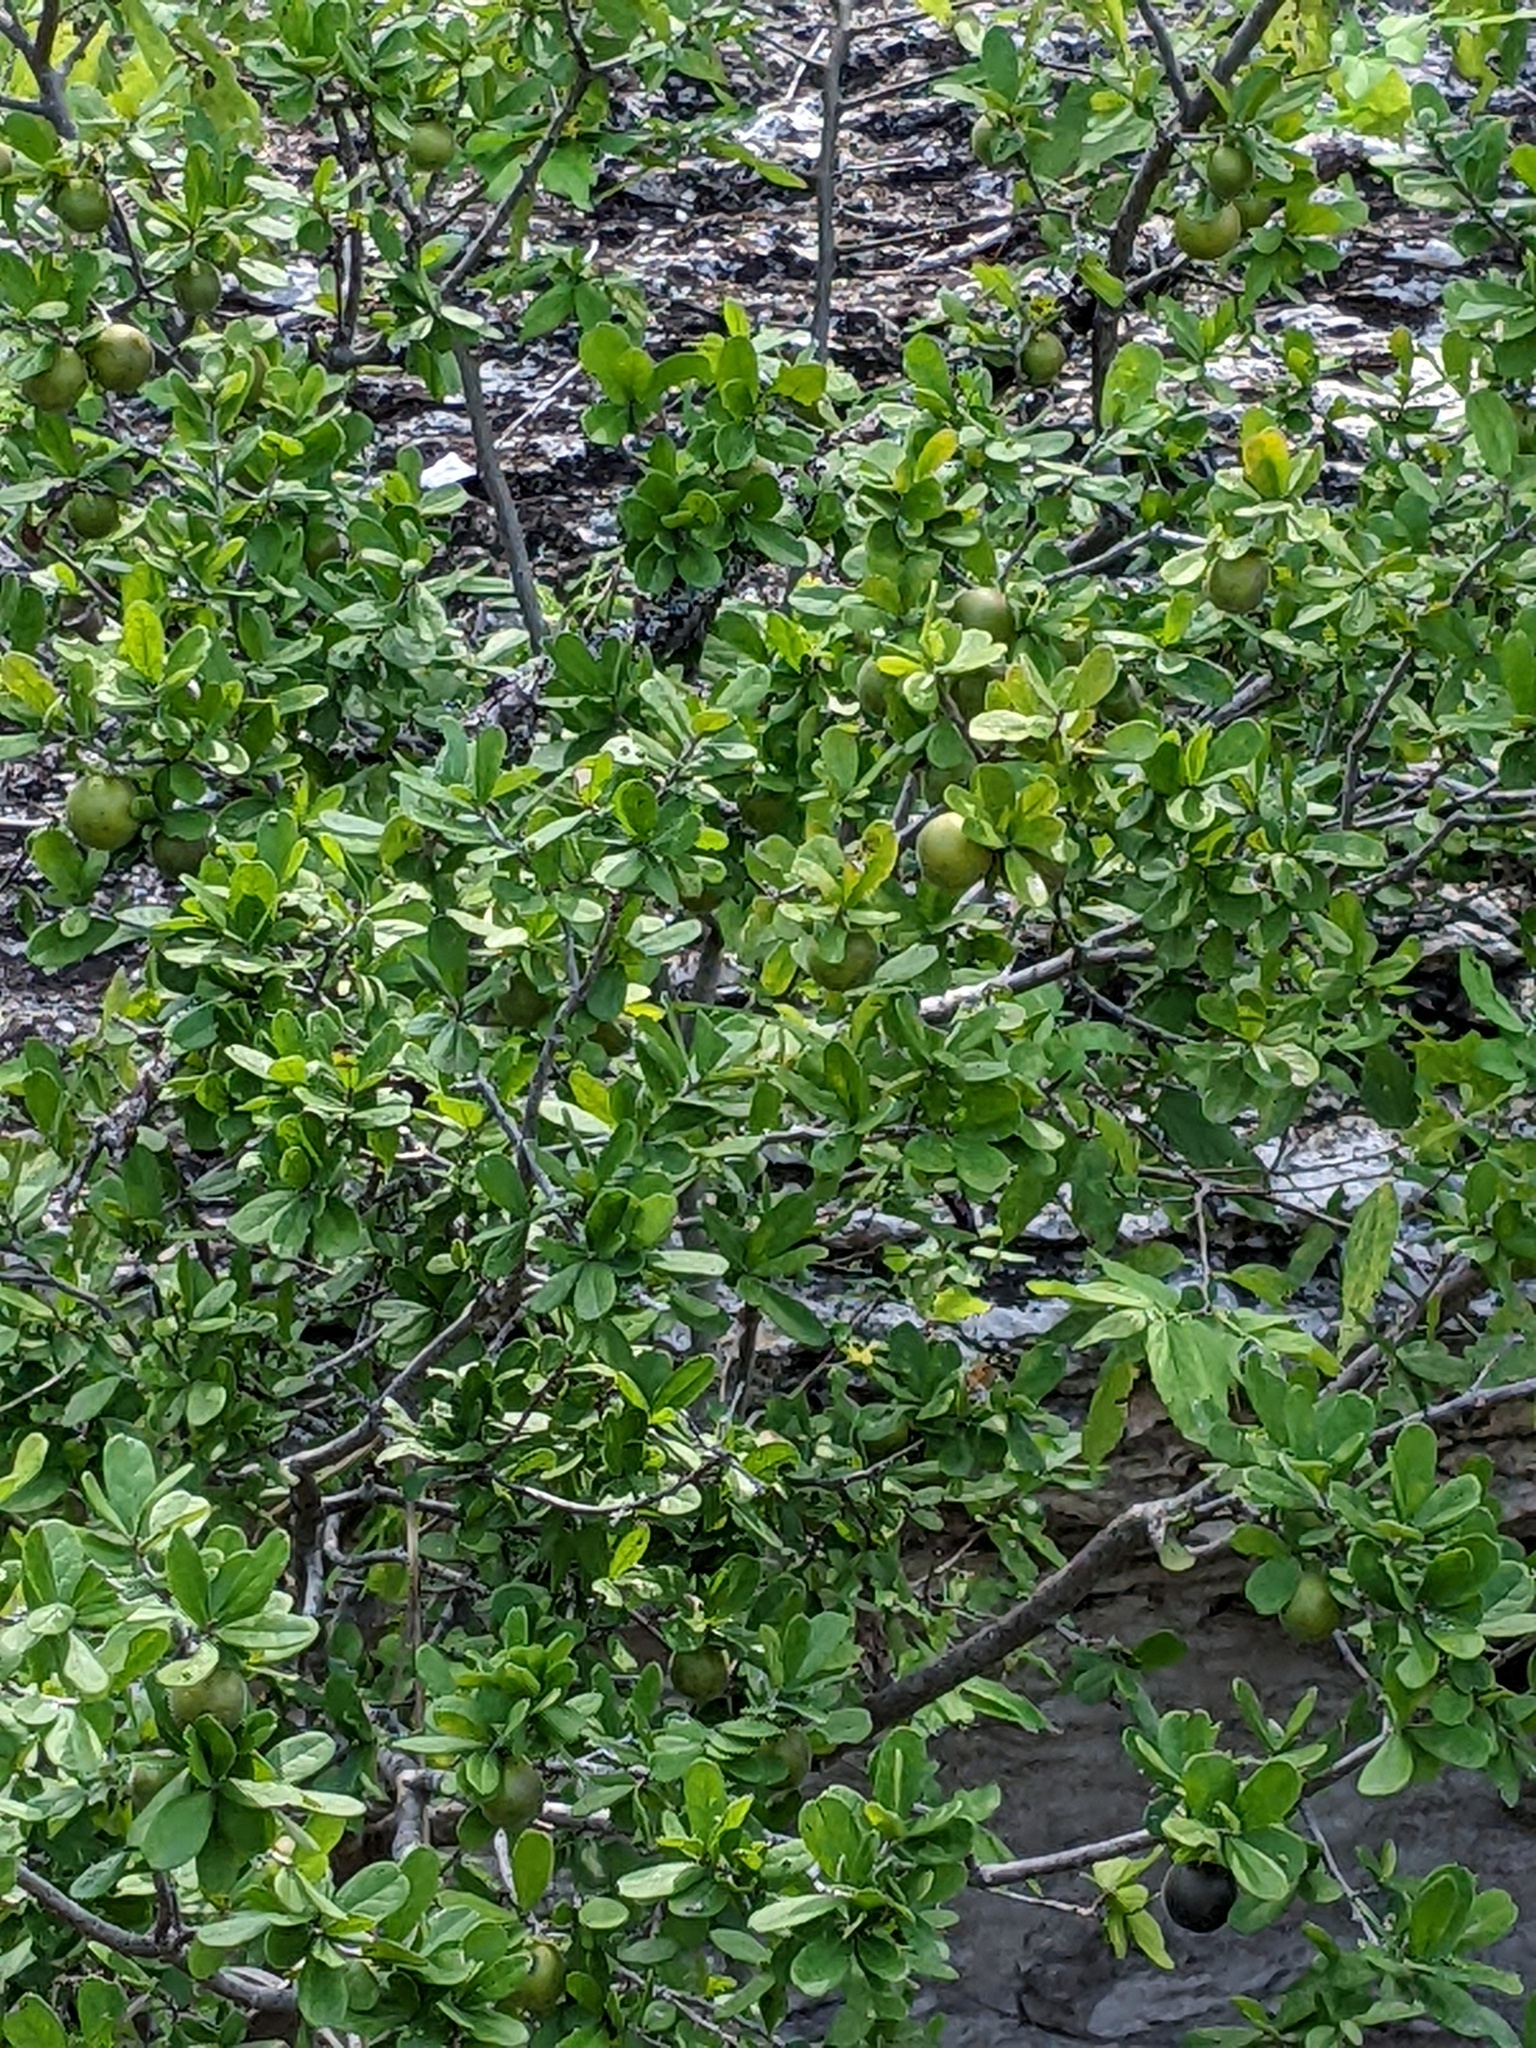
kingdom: Plantae
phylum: Tracheophyta
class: Magnoliopsida
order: Ericales
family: Ebenaceae
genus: Diospyros
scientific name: Diospyros texana
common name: Texas persimmon
